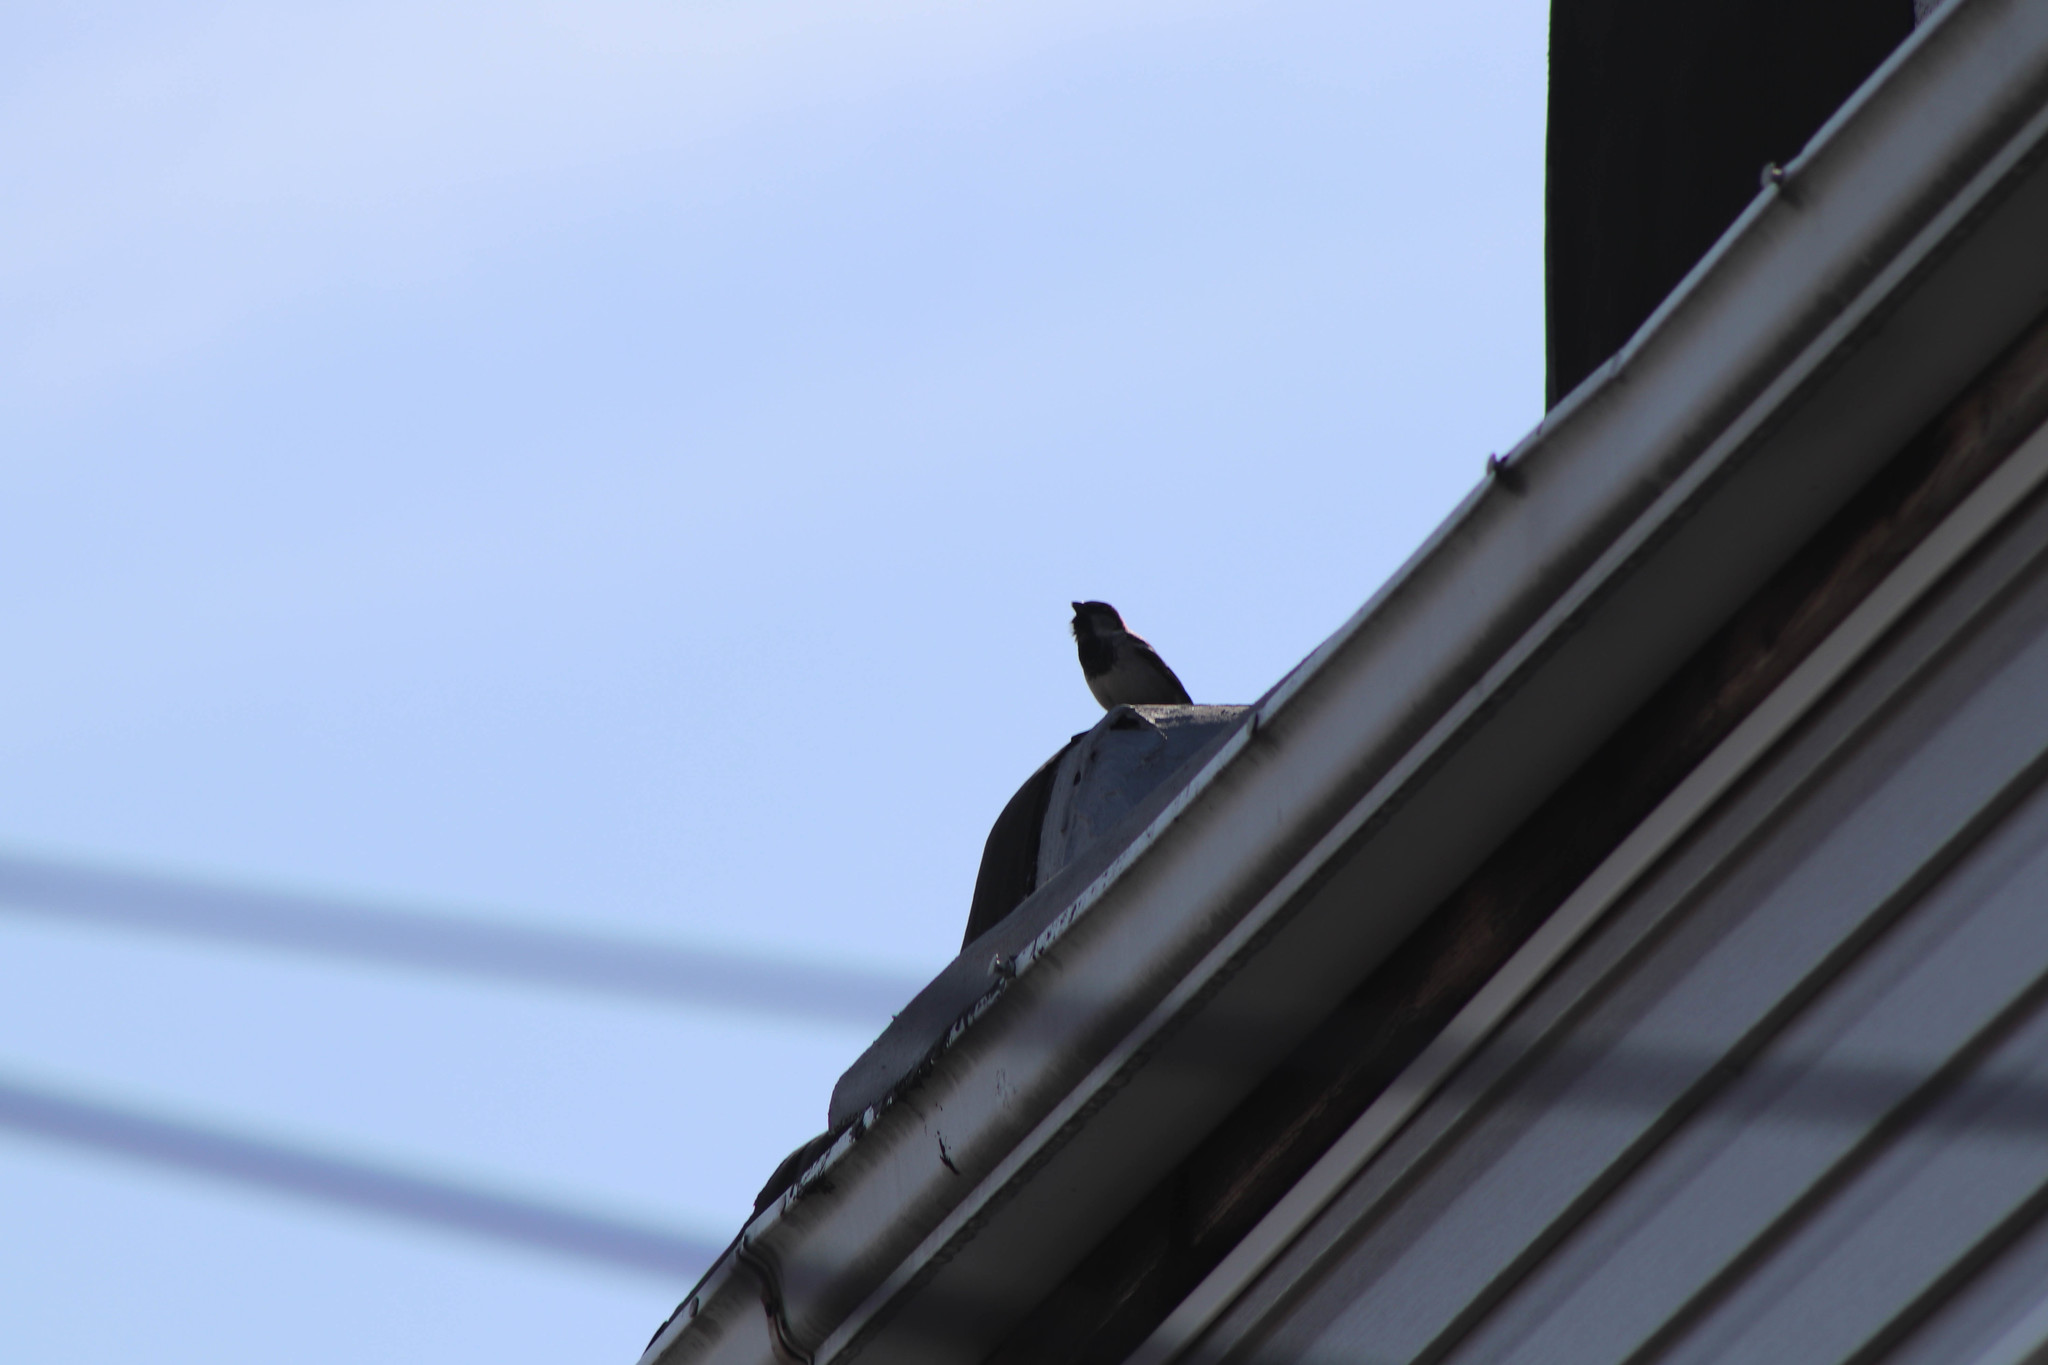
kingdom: Animalia
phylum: Chordata
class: Aves
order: Passeriformes
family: Passeridae
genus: Passer
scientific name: Passer domesticus
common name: House sparrow
